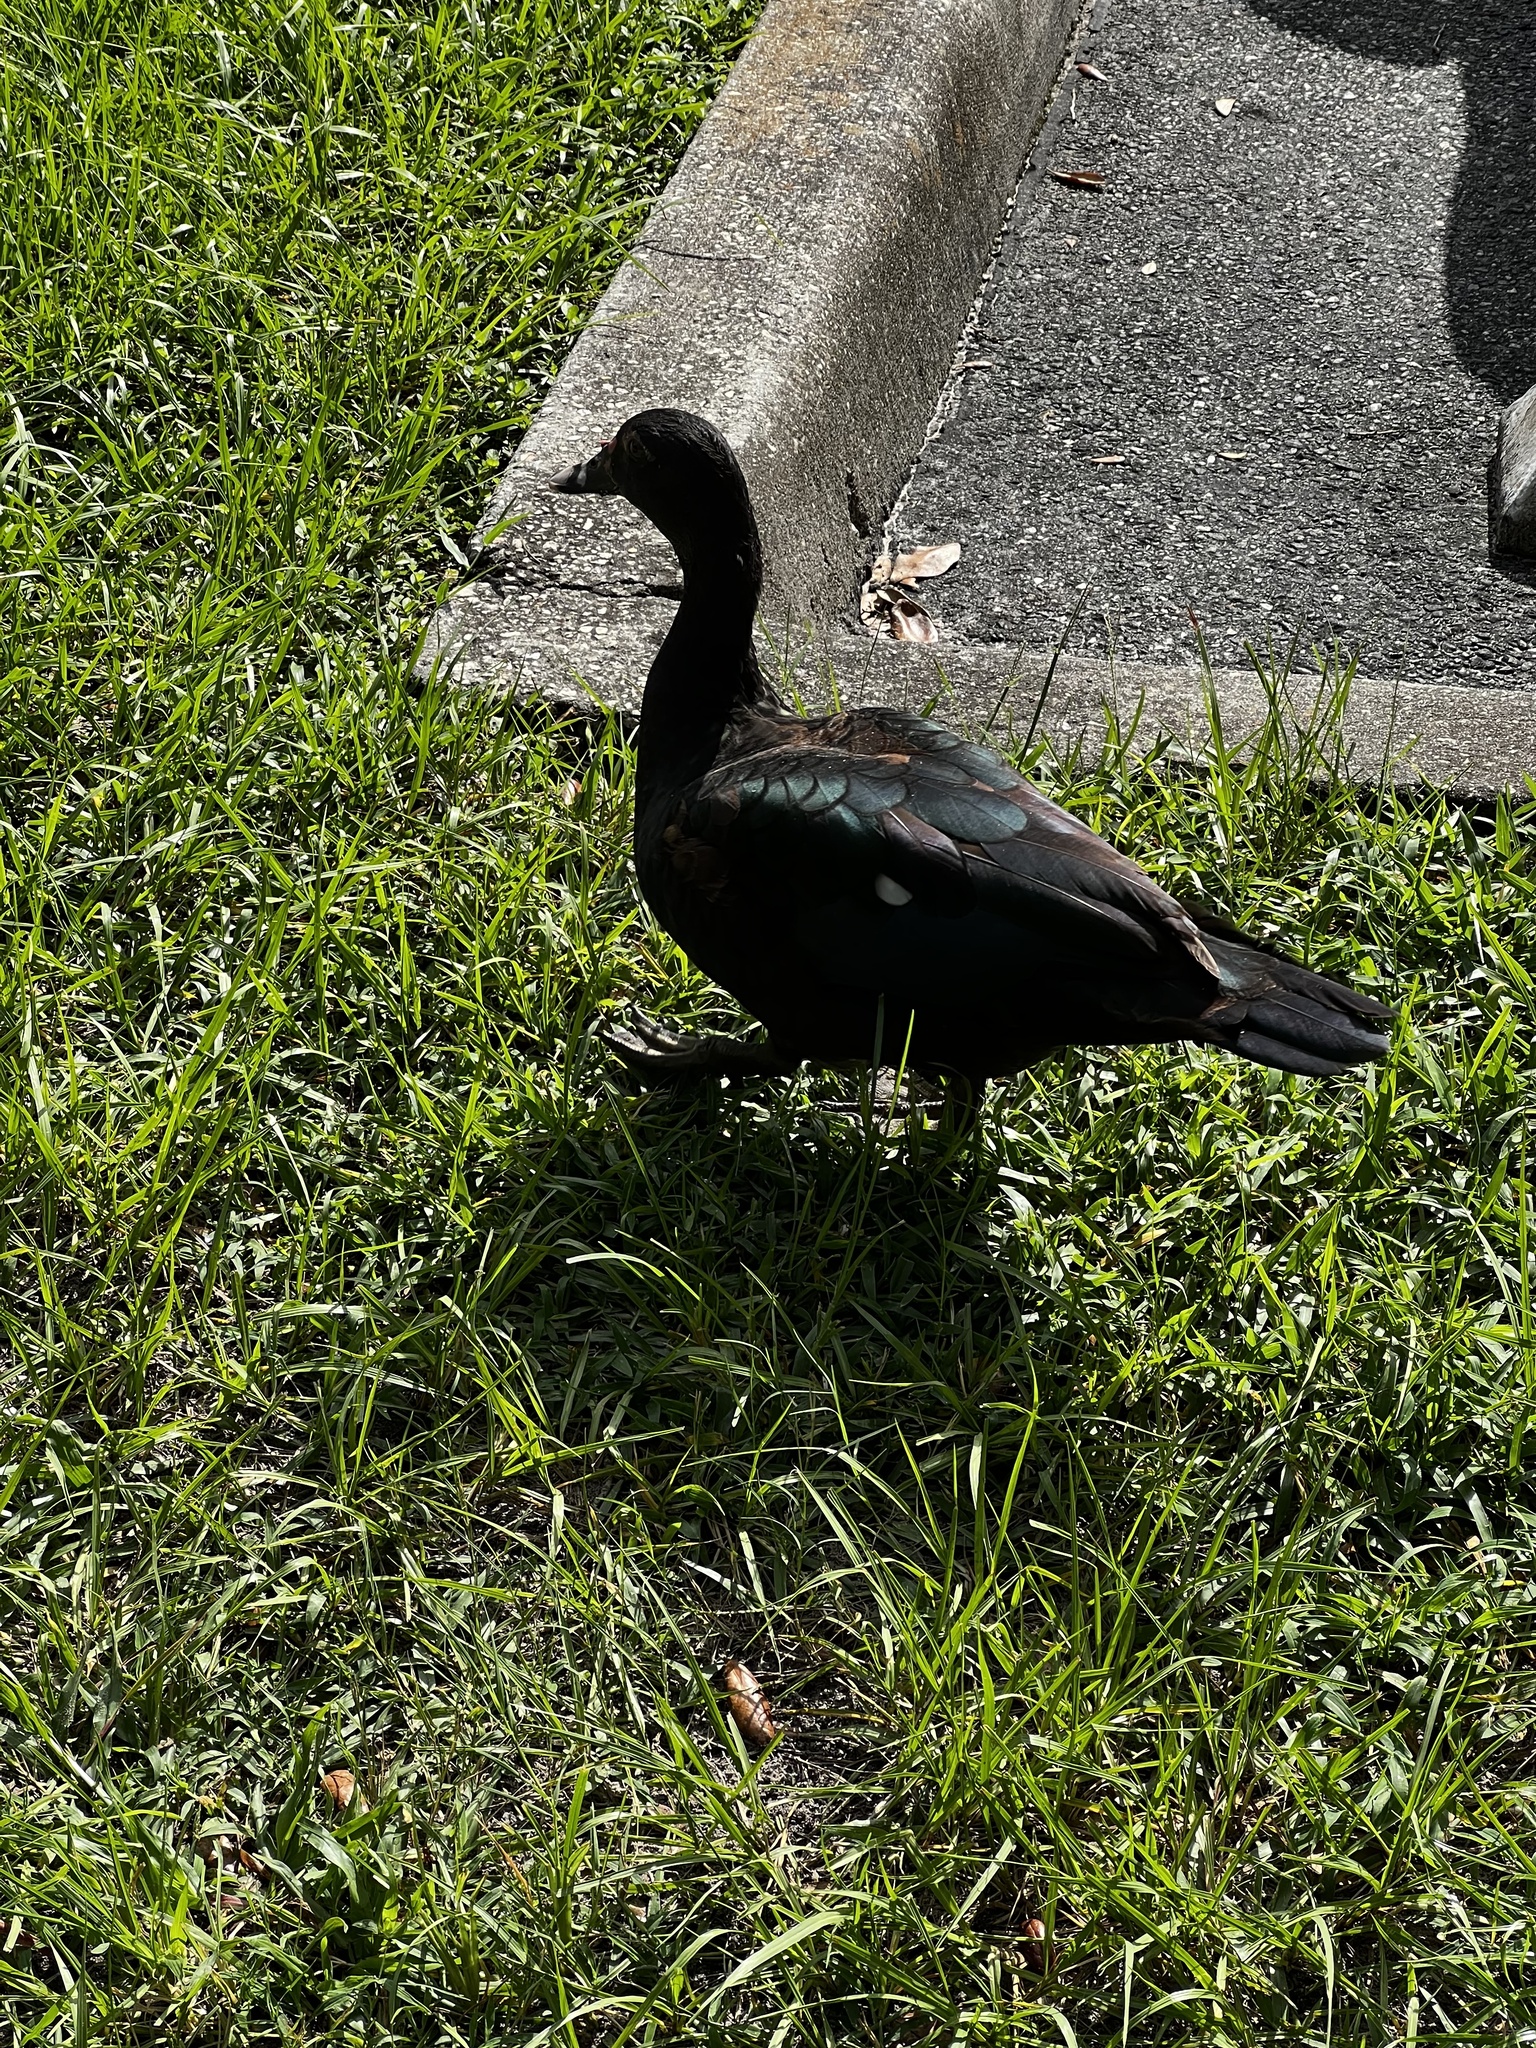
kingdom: Animalia
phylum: Chordata
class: Aves
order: Anseriformes
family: Anatidae
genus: Cairina
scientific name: Cairina moschata
